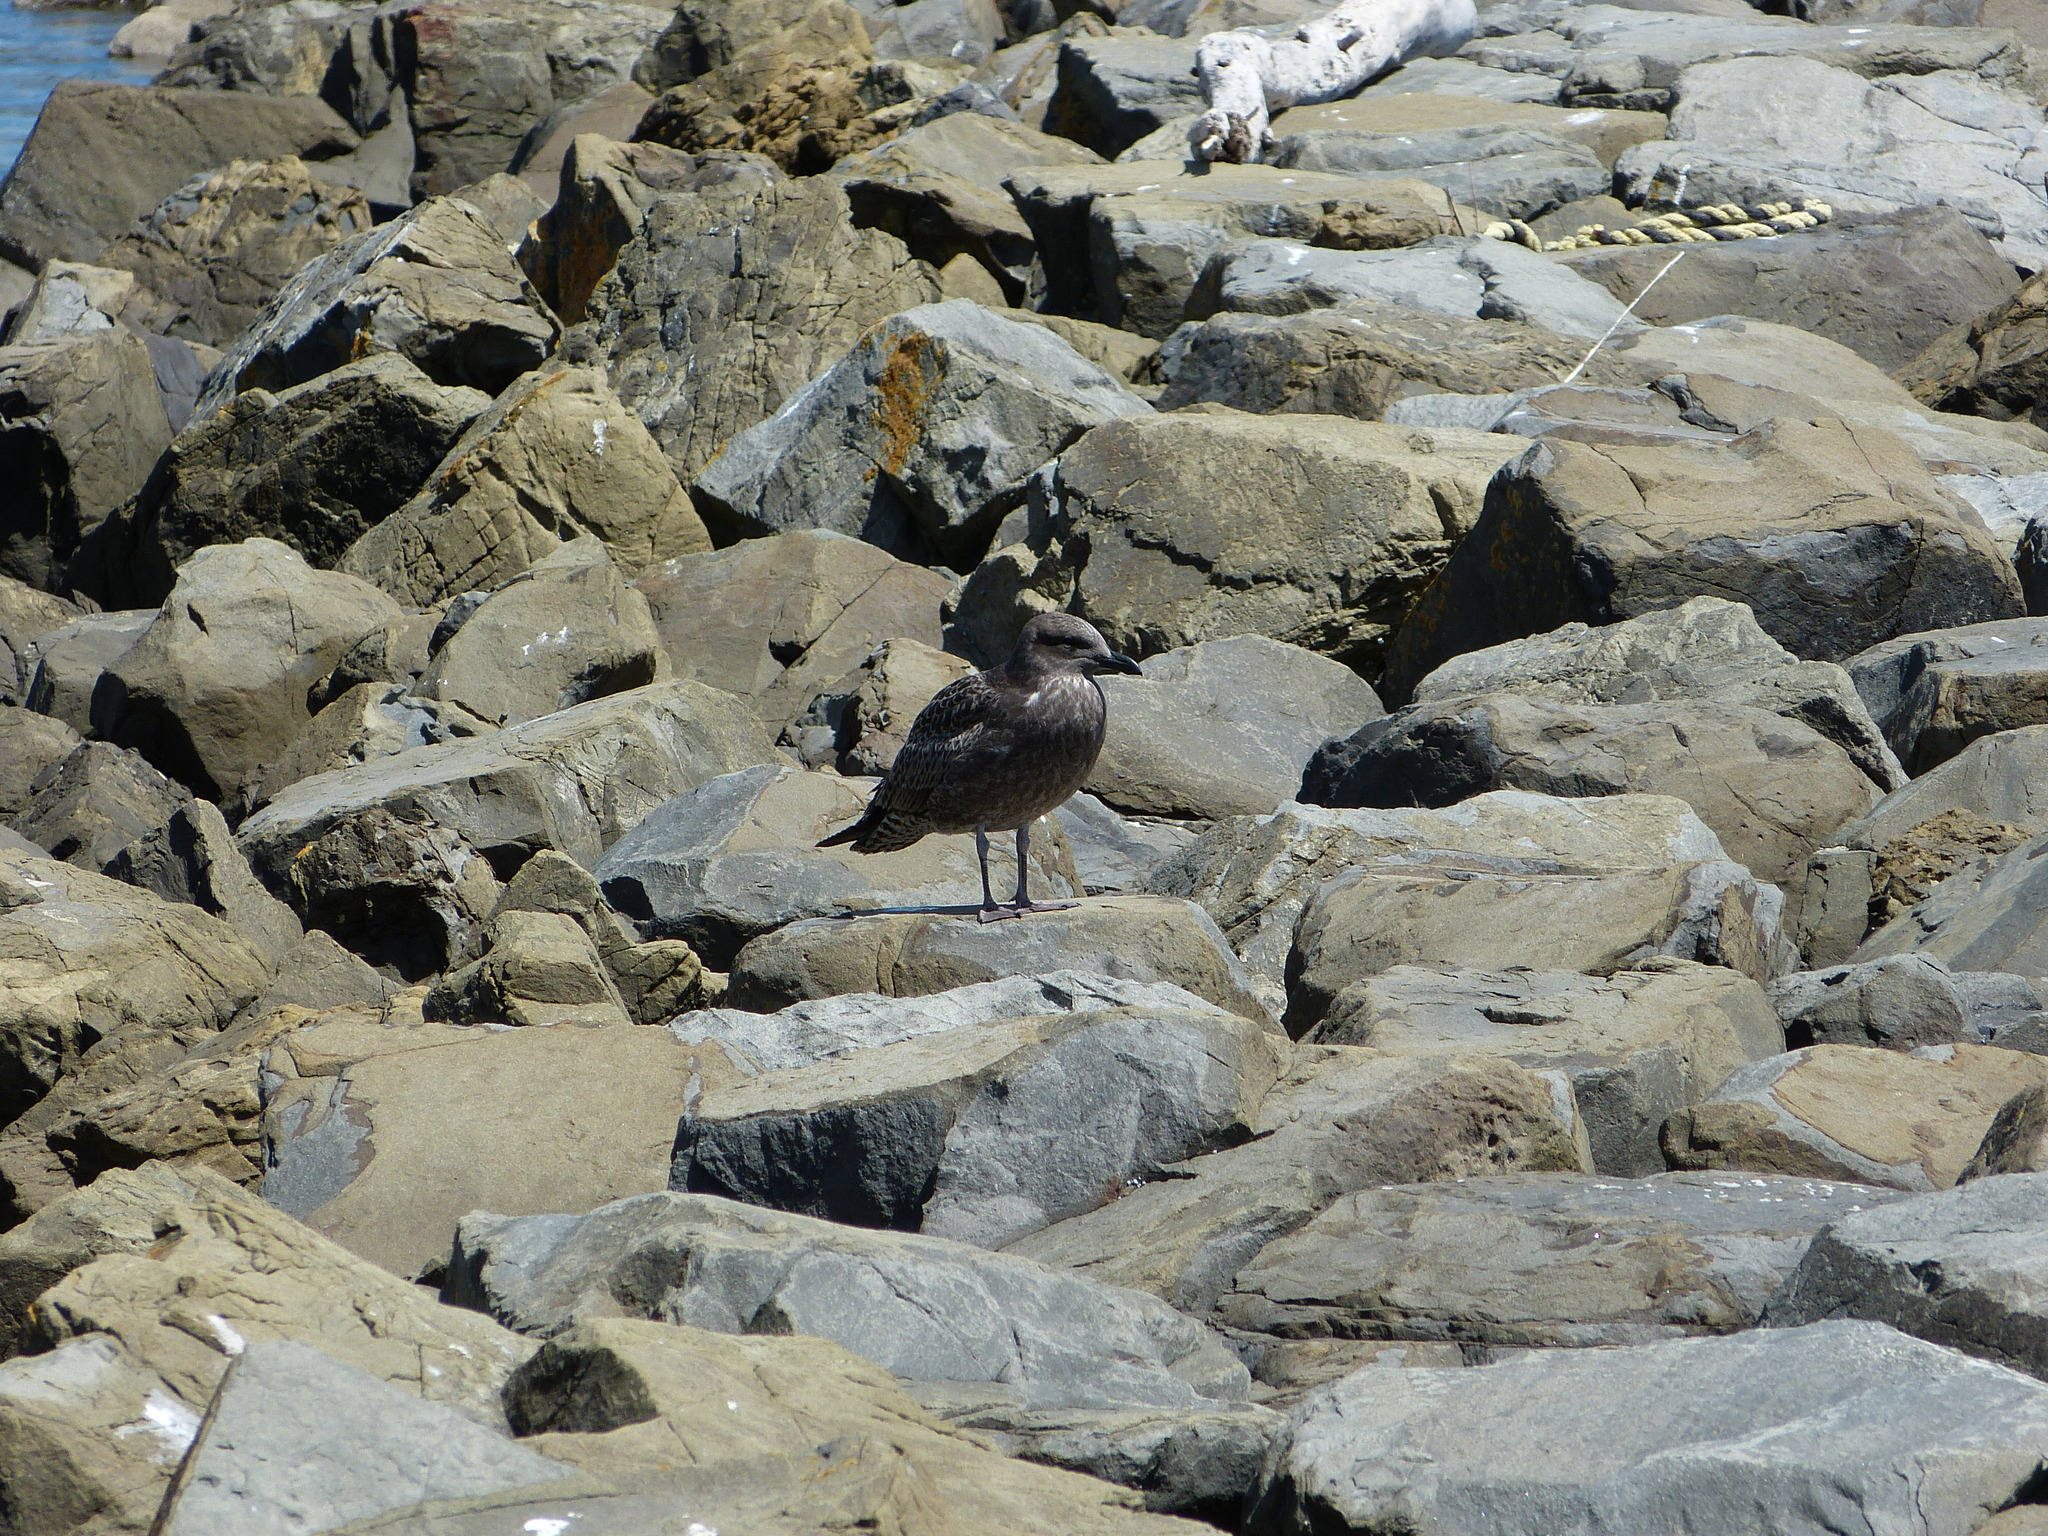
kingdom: Animalia
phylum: Chordata
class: Aves
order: Charadriiformes
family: Laridae
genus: Larus
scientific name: Larus dominicanus
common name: Kelp gull
